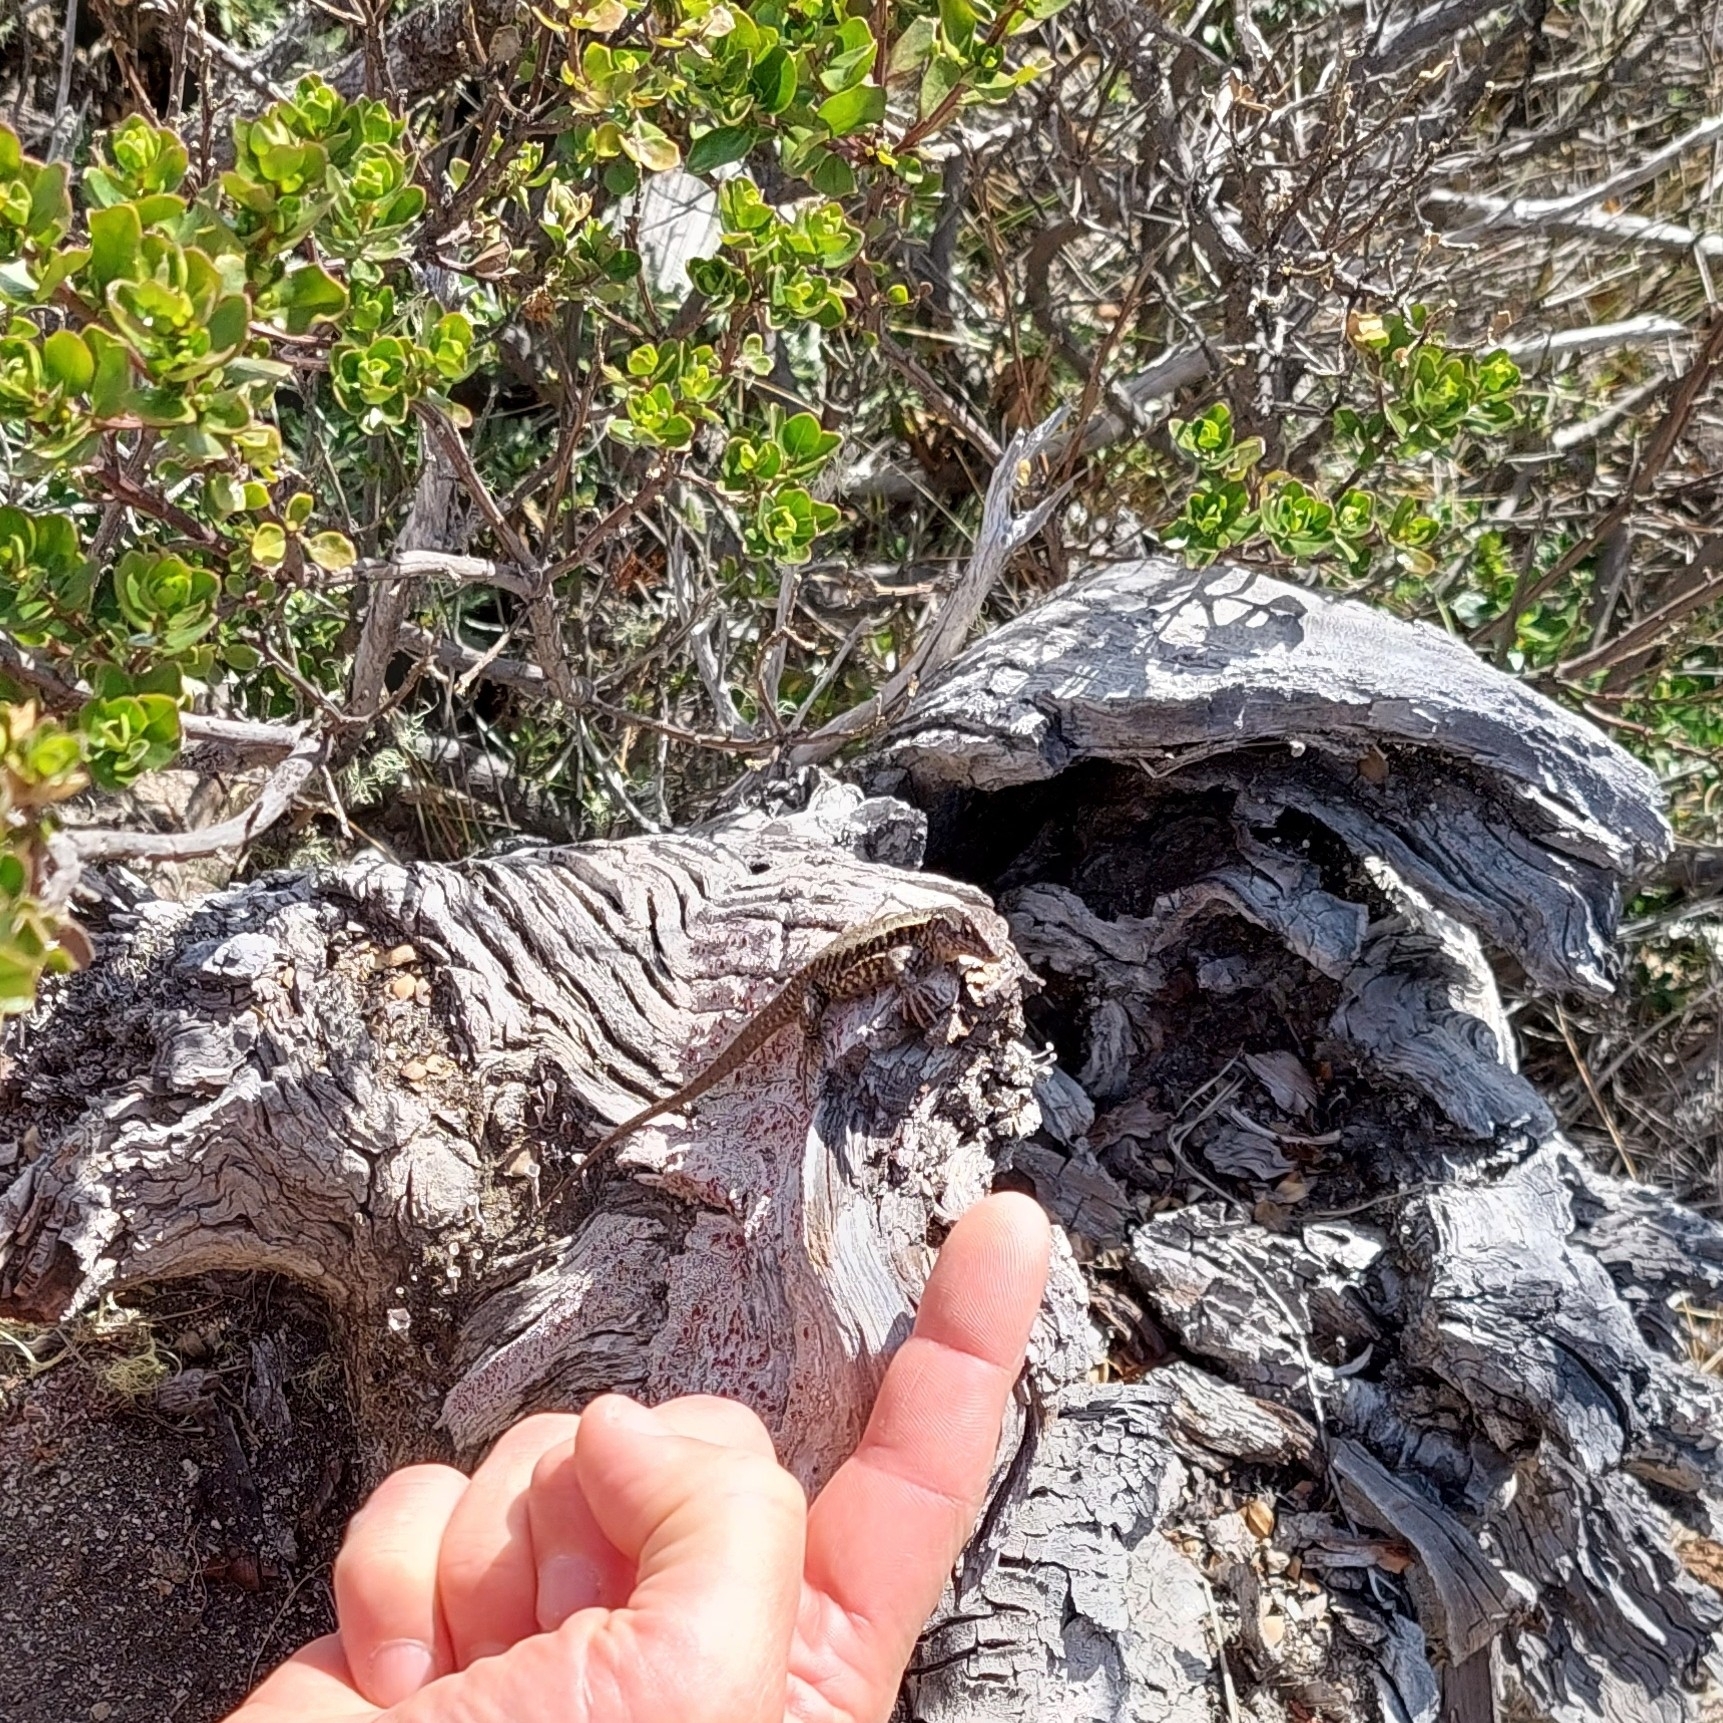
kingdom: Animalia
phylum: Chordata
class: Squamata
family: Liolaemidae
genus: Liolaemus
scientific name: Liolaemus pictus
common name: Painted tree iguana
